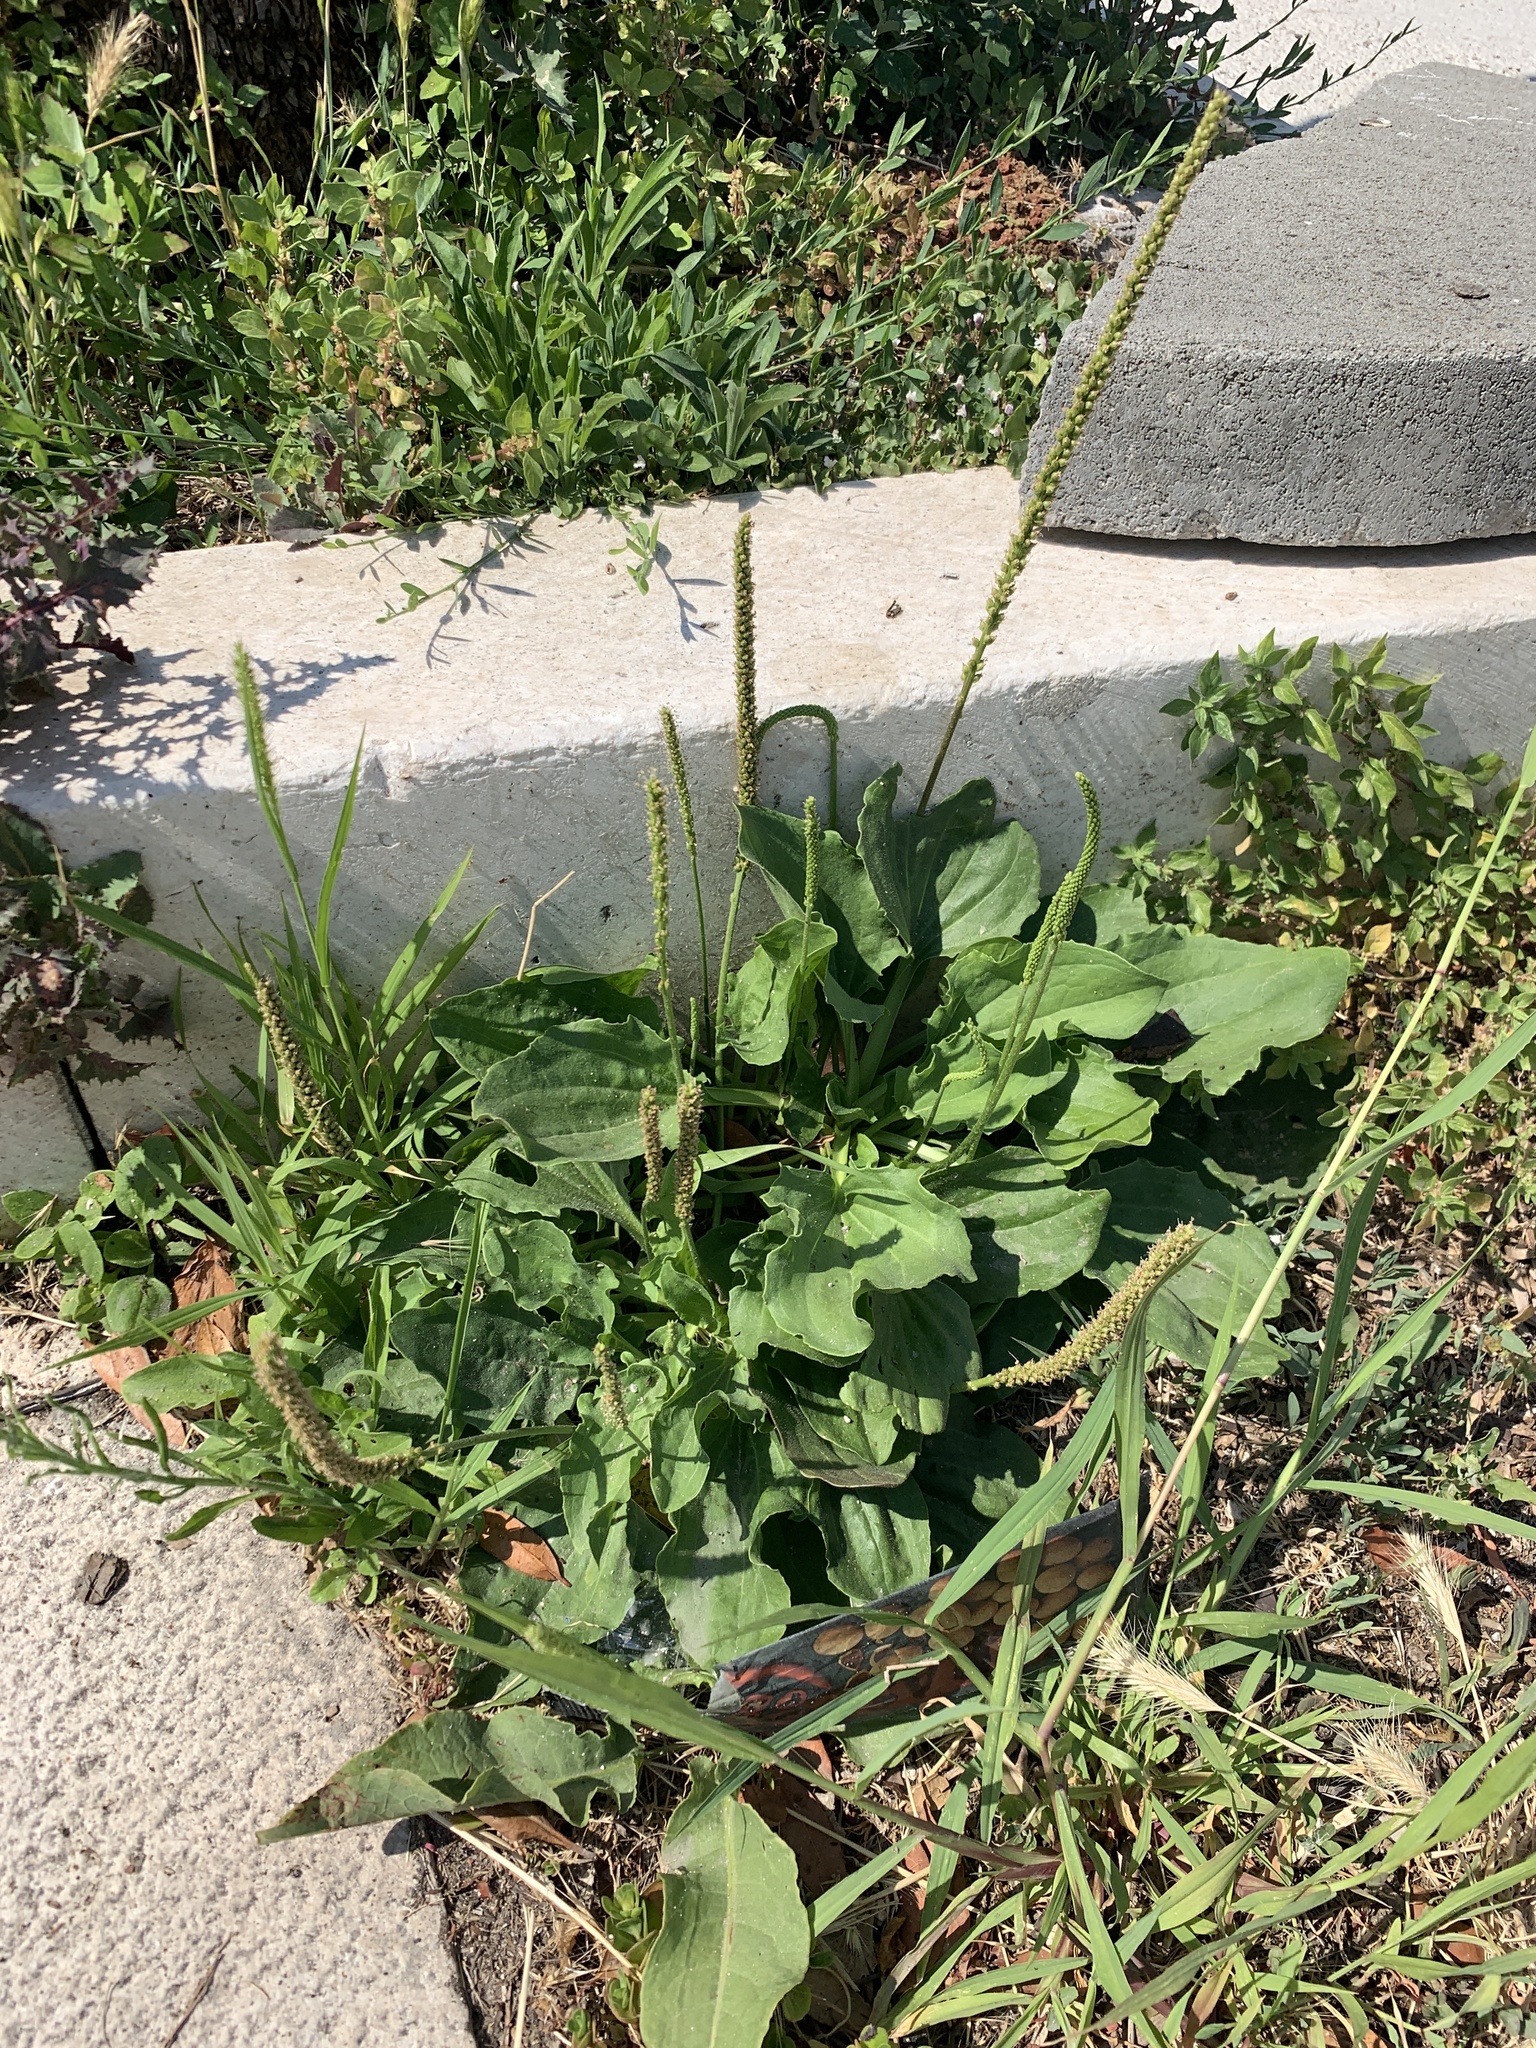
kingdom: Plantae
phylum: Tracheophyta
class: Magnoliopsida
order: Lamiales
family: Plantaginaceae
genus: Plantago
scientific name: Plantago major
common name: Common plantain
